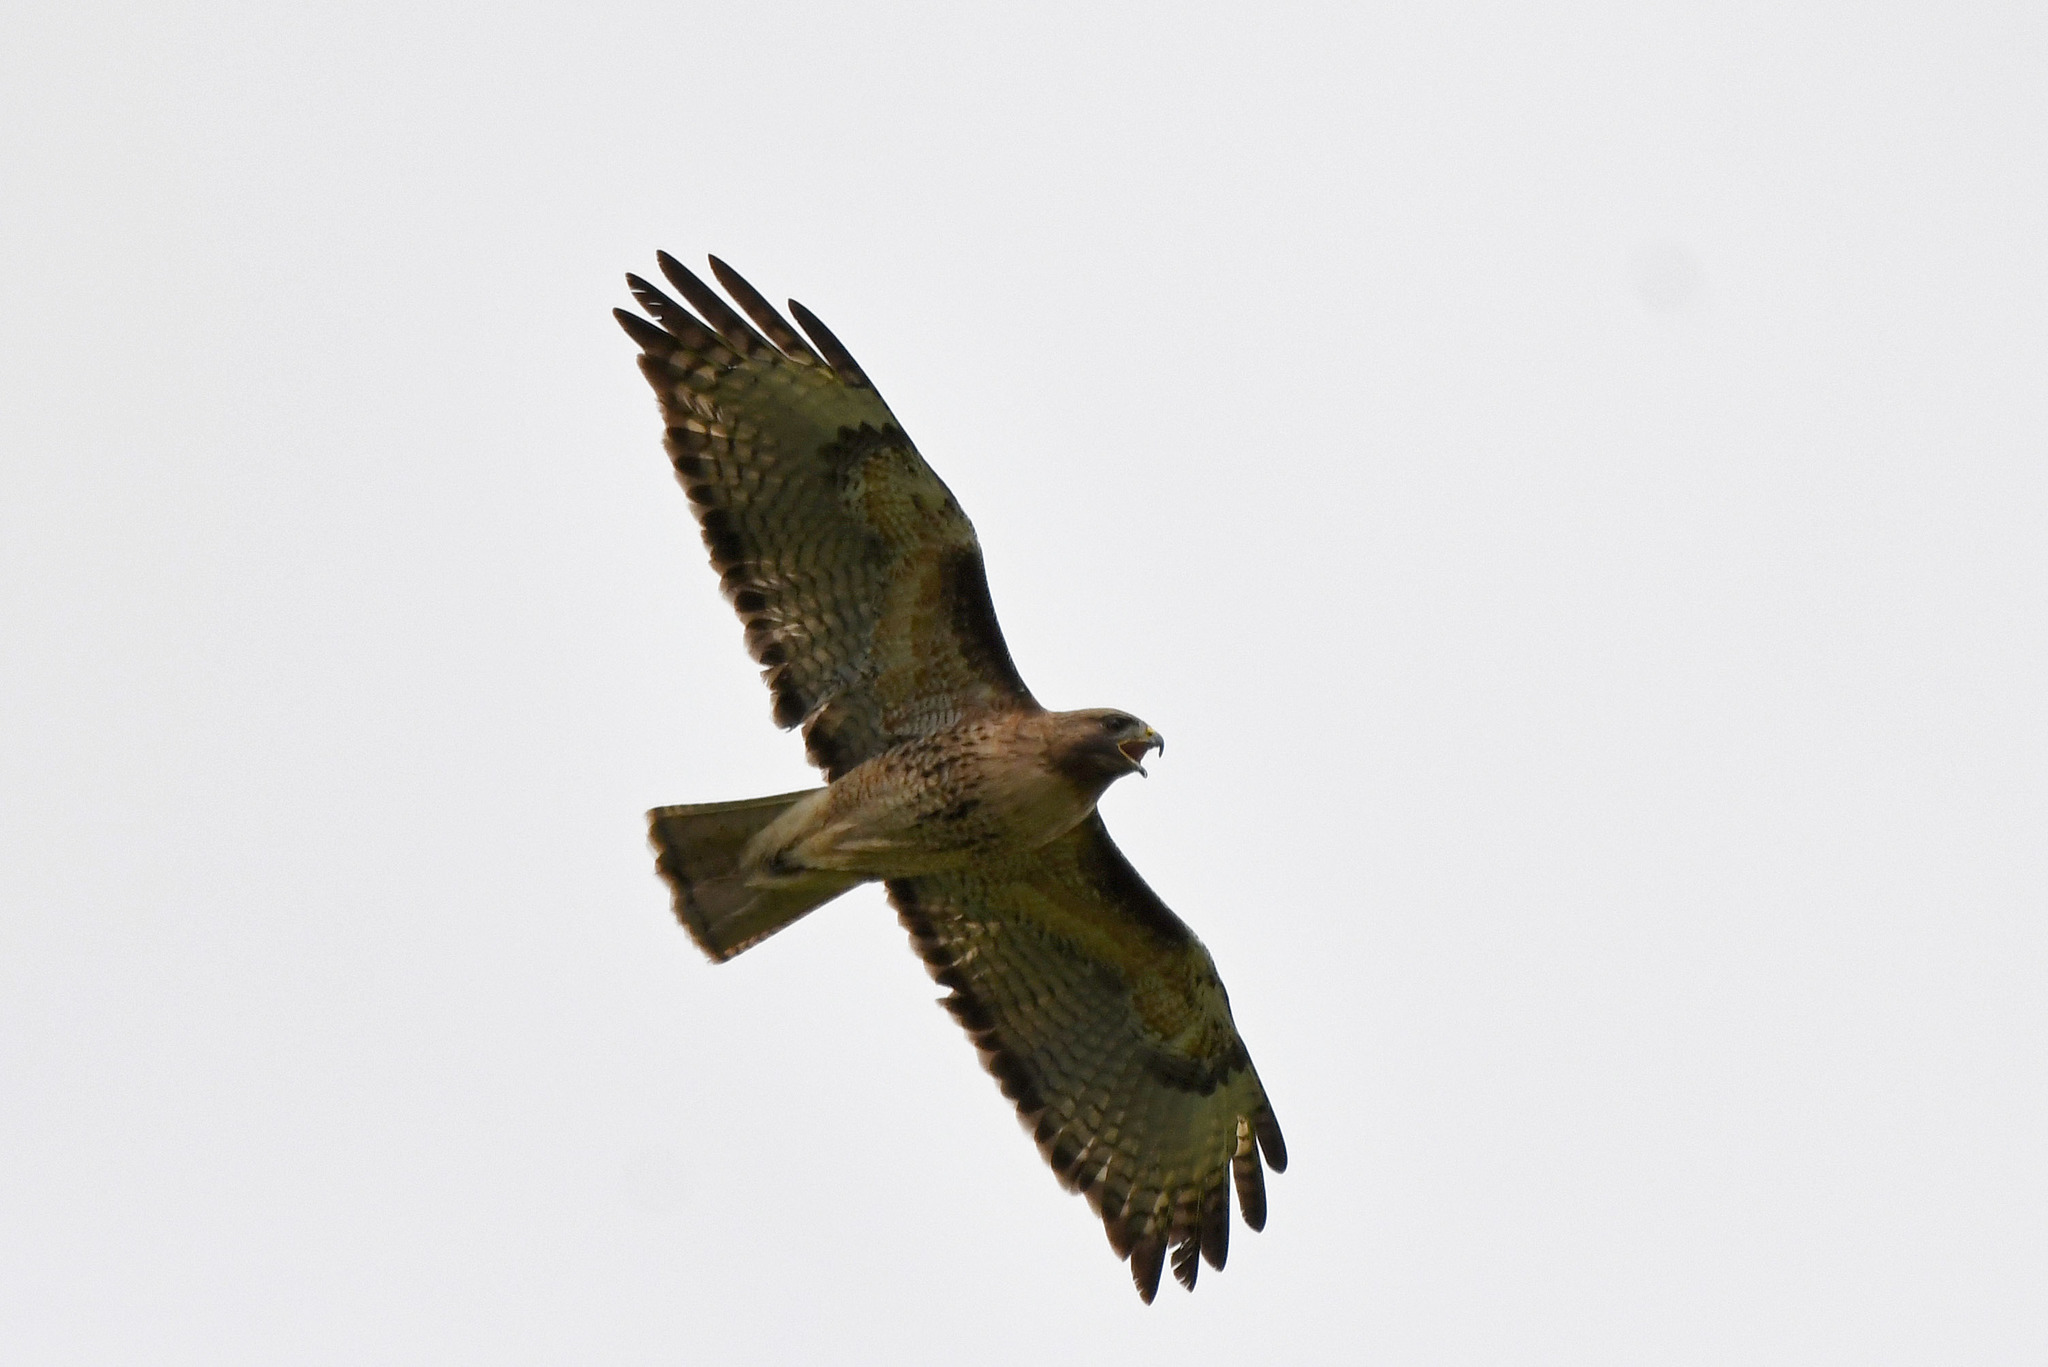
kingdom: Animalia
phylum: Chordata
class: Aves
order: Accipitriformes
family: Accipitridae
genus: Buteo
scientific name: Buteo jamaicensis
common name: Red-tailed hawk
